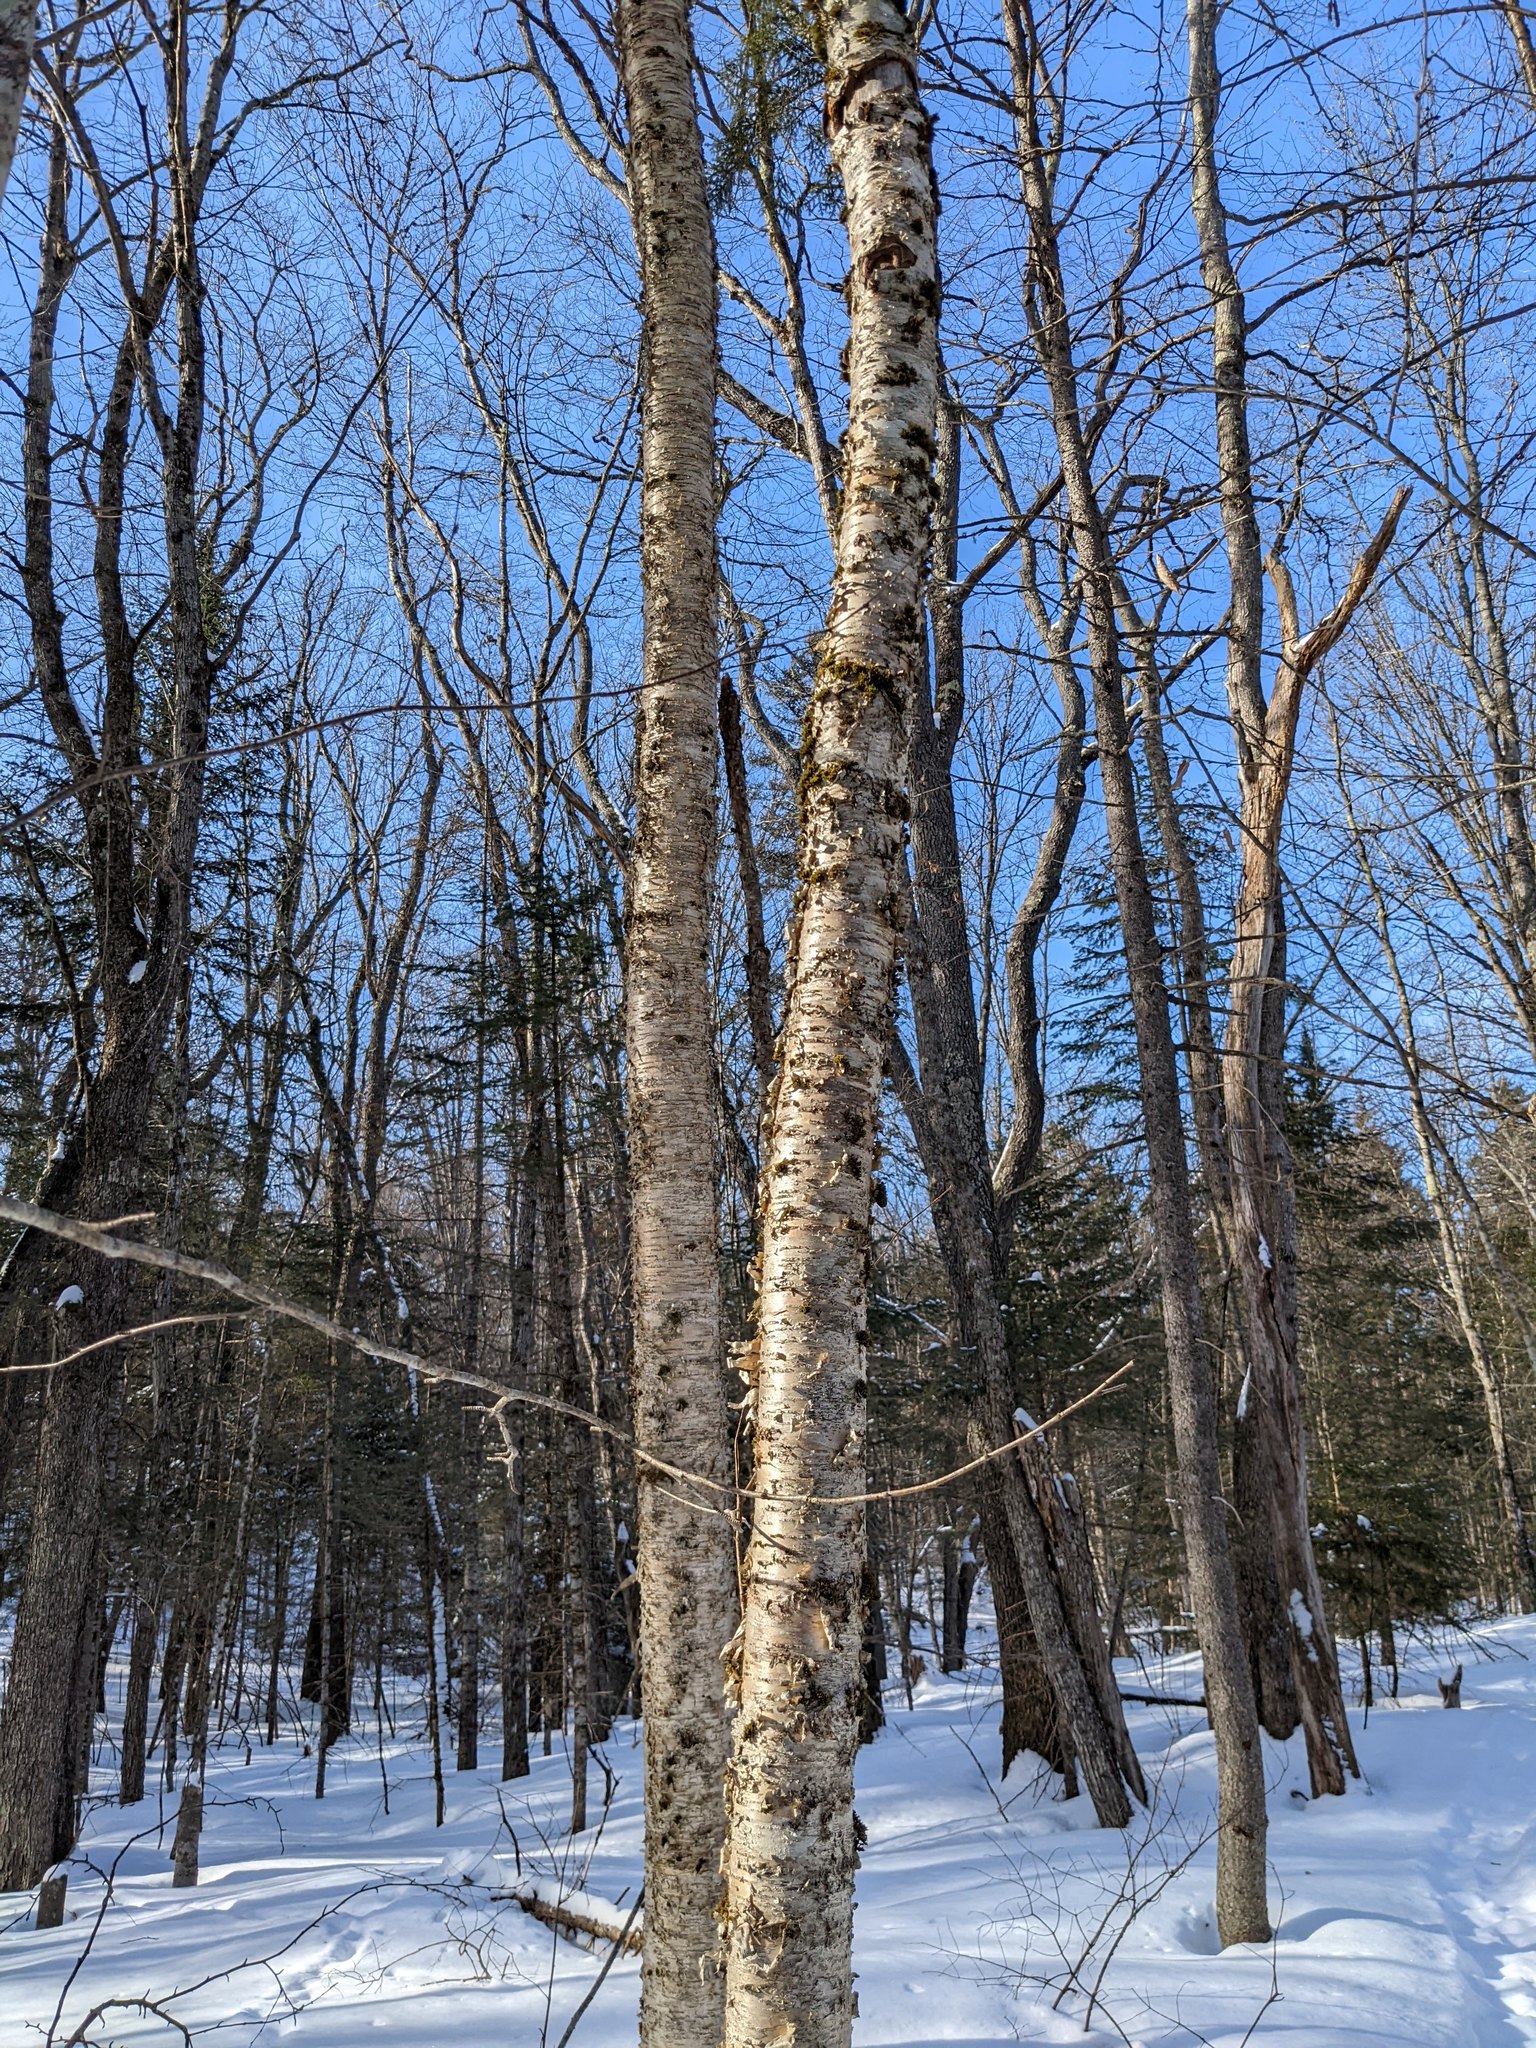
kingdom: Plantae
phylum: Tracheophyta
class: Magnoliopsida
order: Fagales
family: Betulaceae
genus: Betula
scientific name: Betula alleghaniensis
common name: Yellow birch
